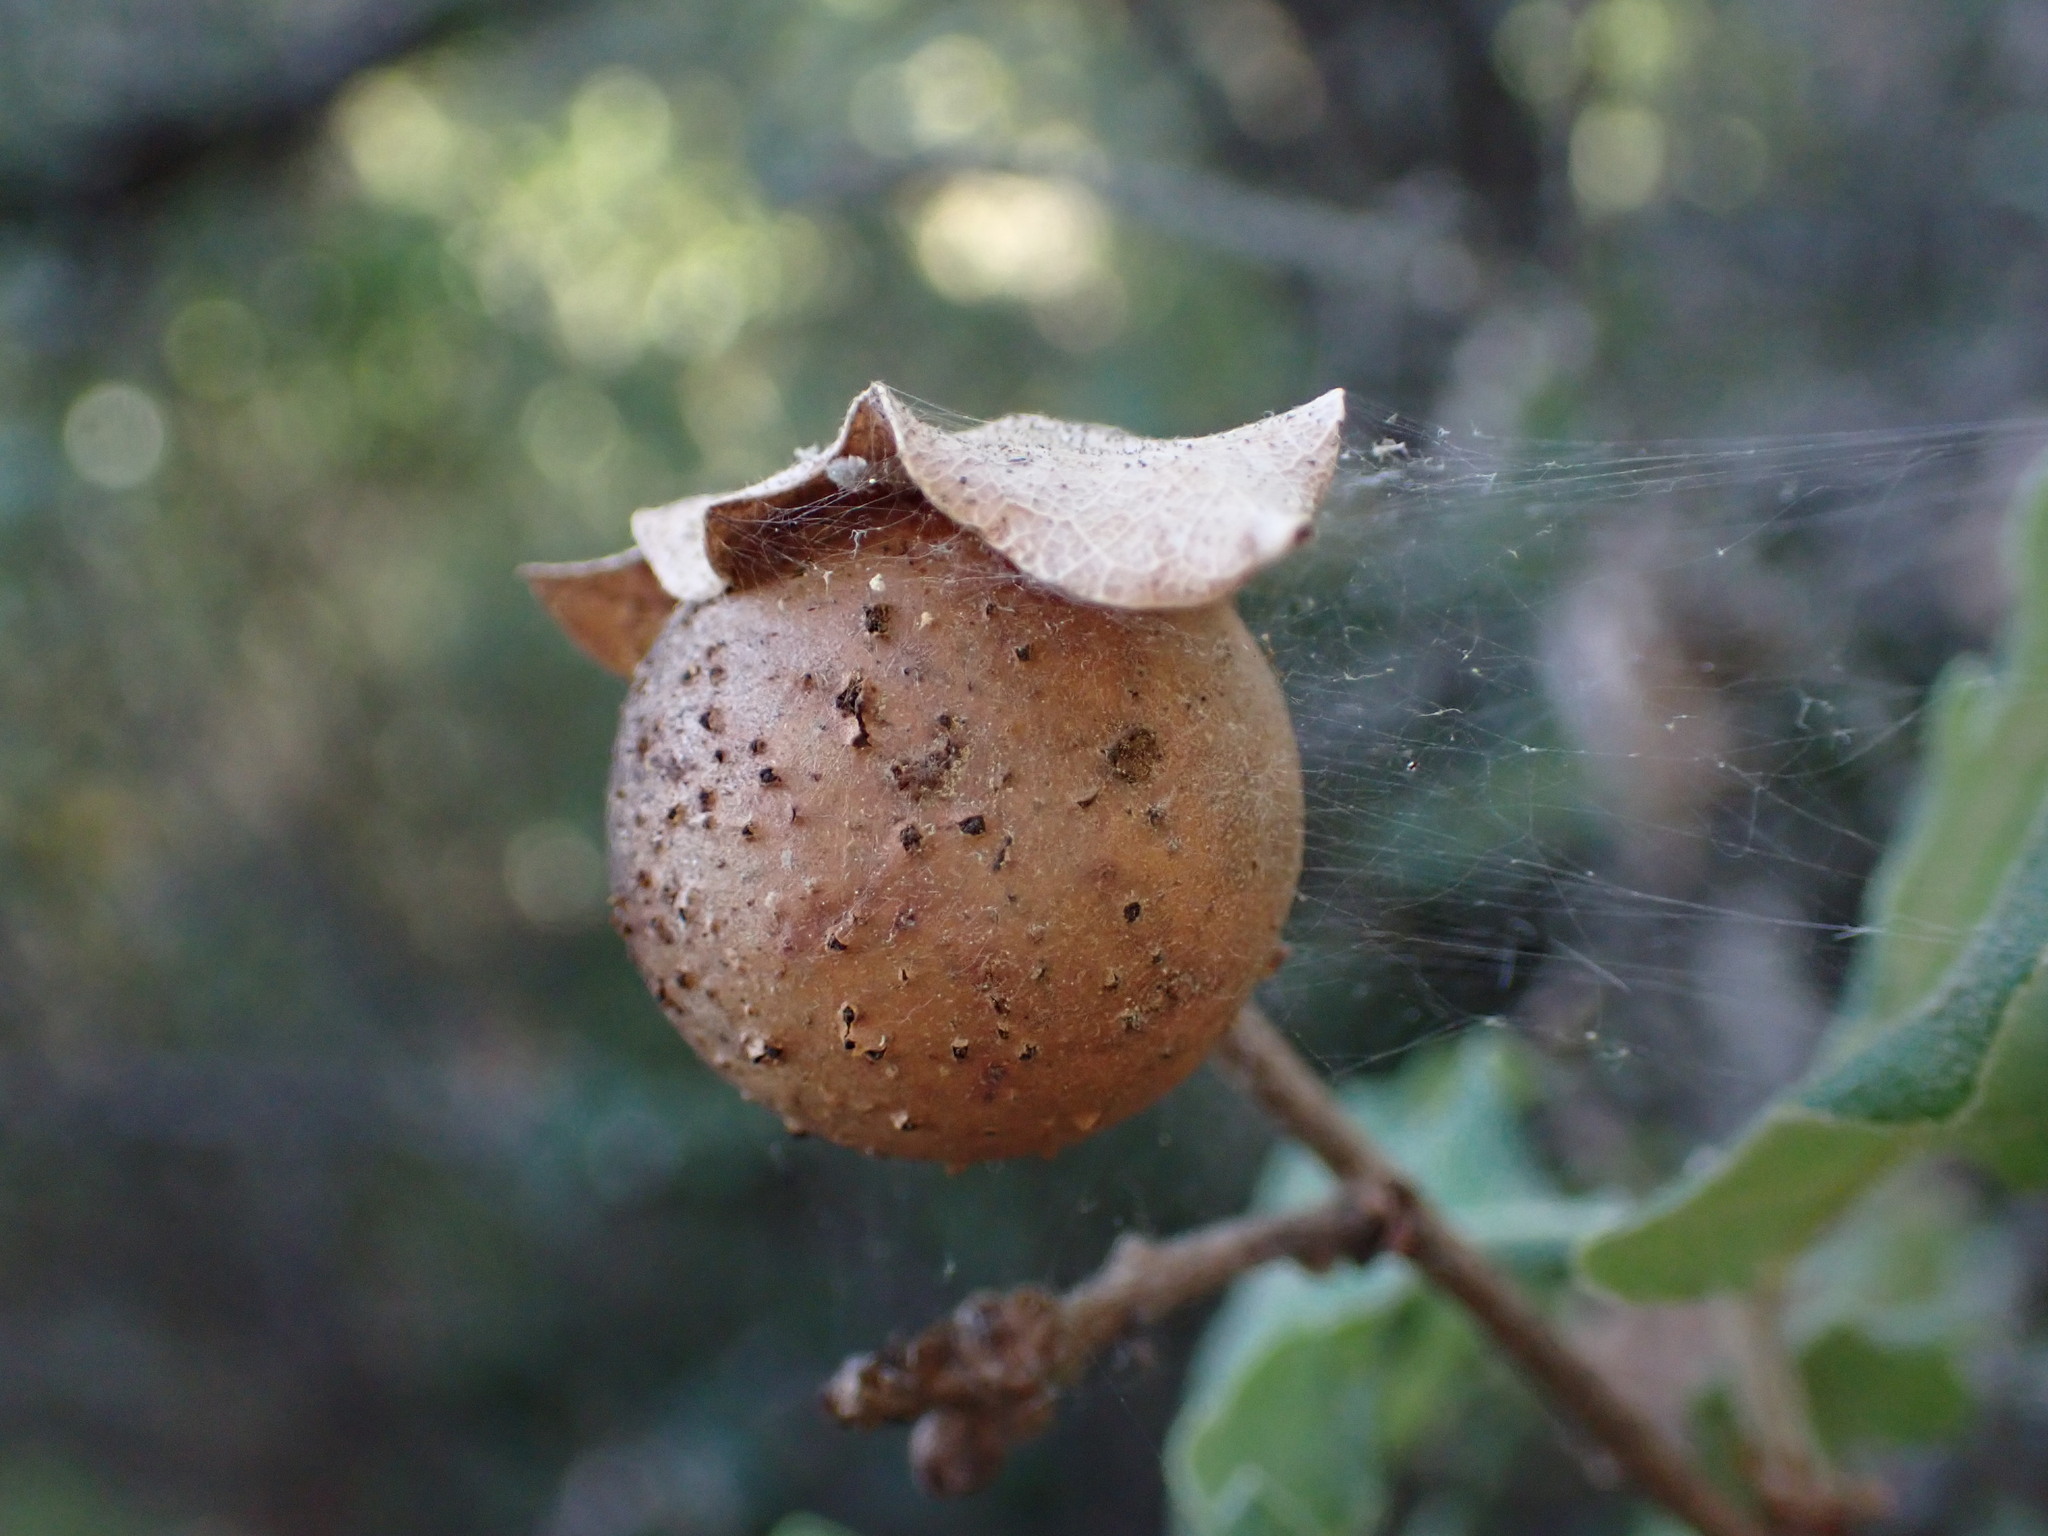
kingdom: Animalia
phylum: Arthropoda
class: Insecta
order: Hymenoptera
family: Cynipidae
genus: Andricus
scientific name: Andricus kollari
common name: Marble gall
